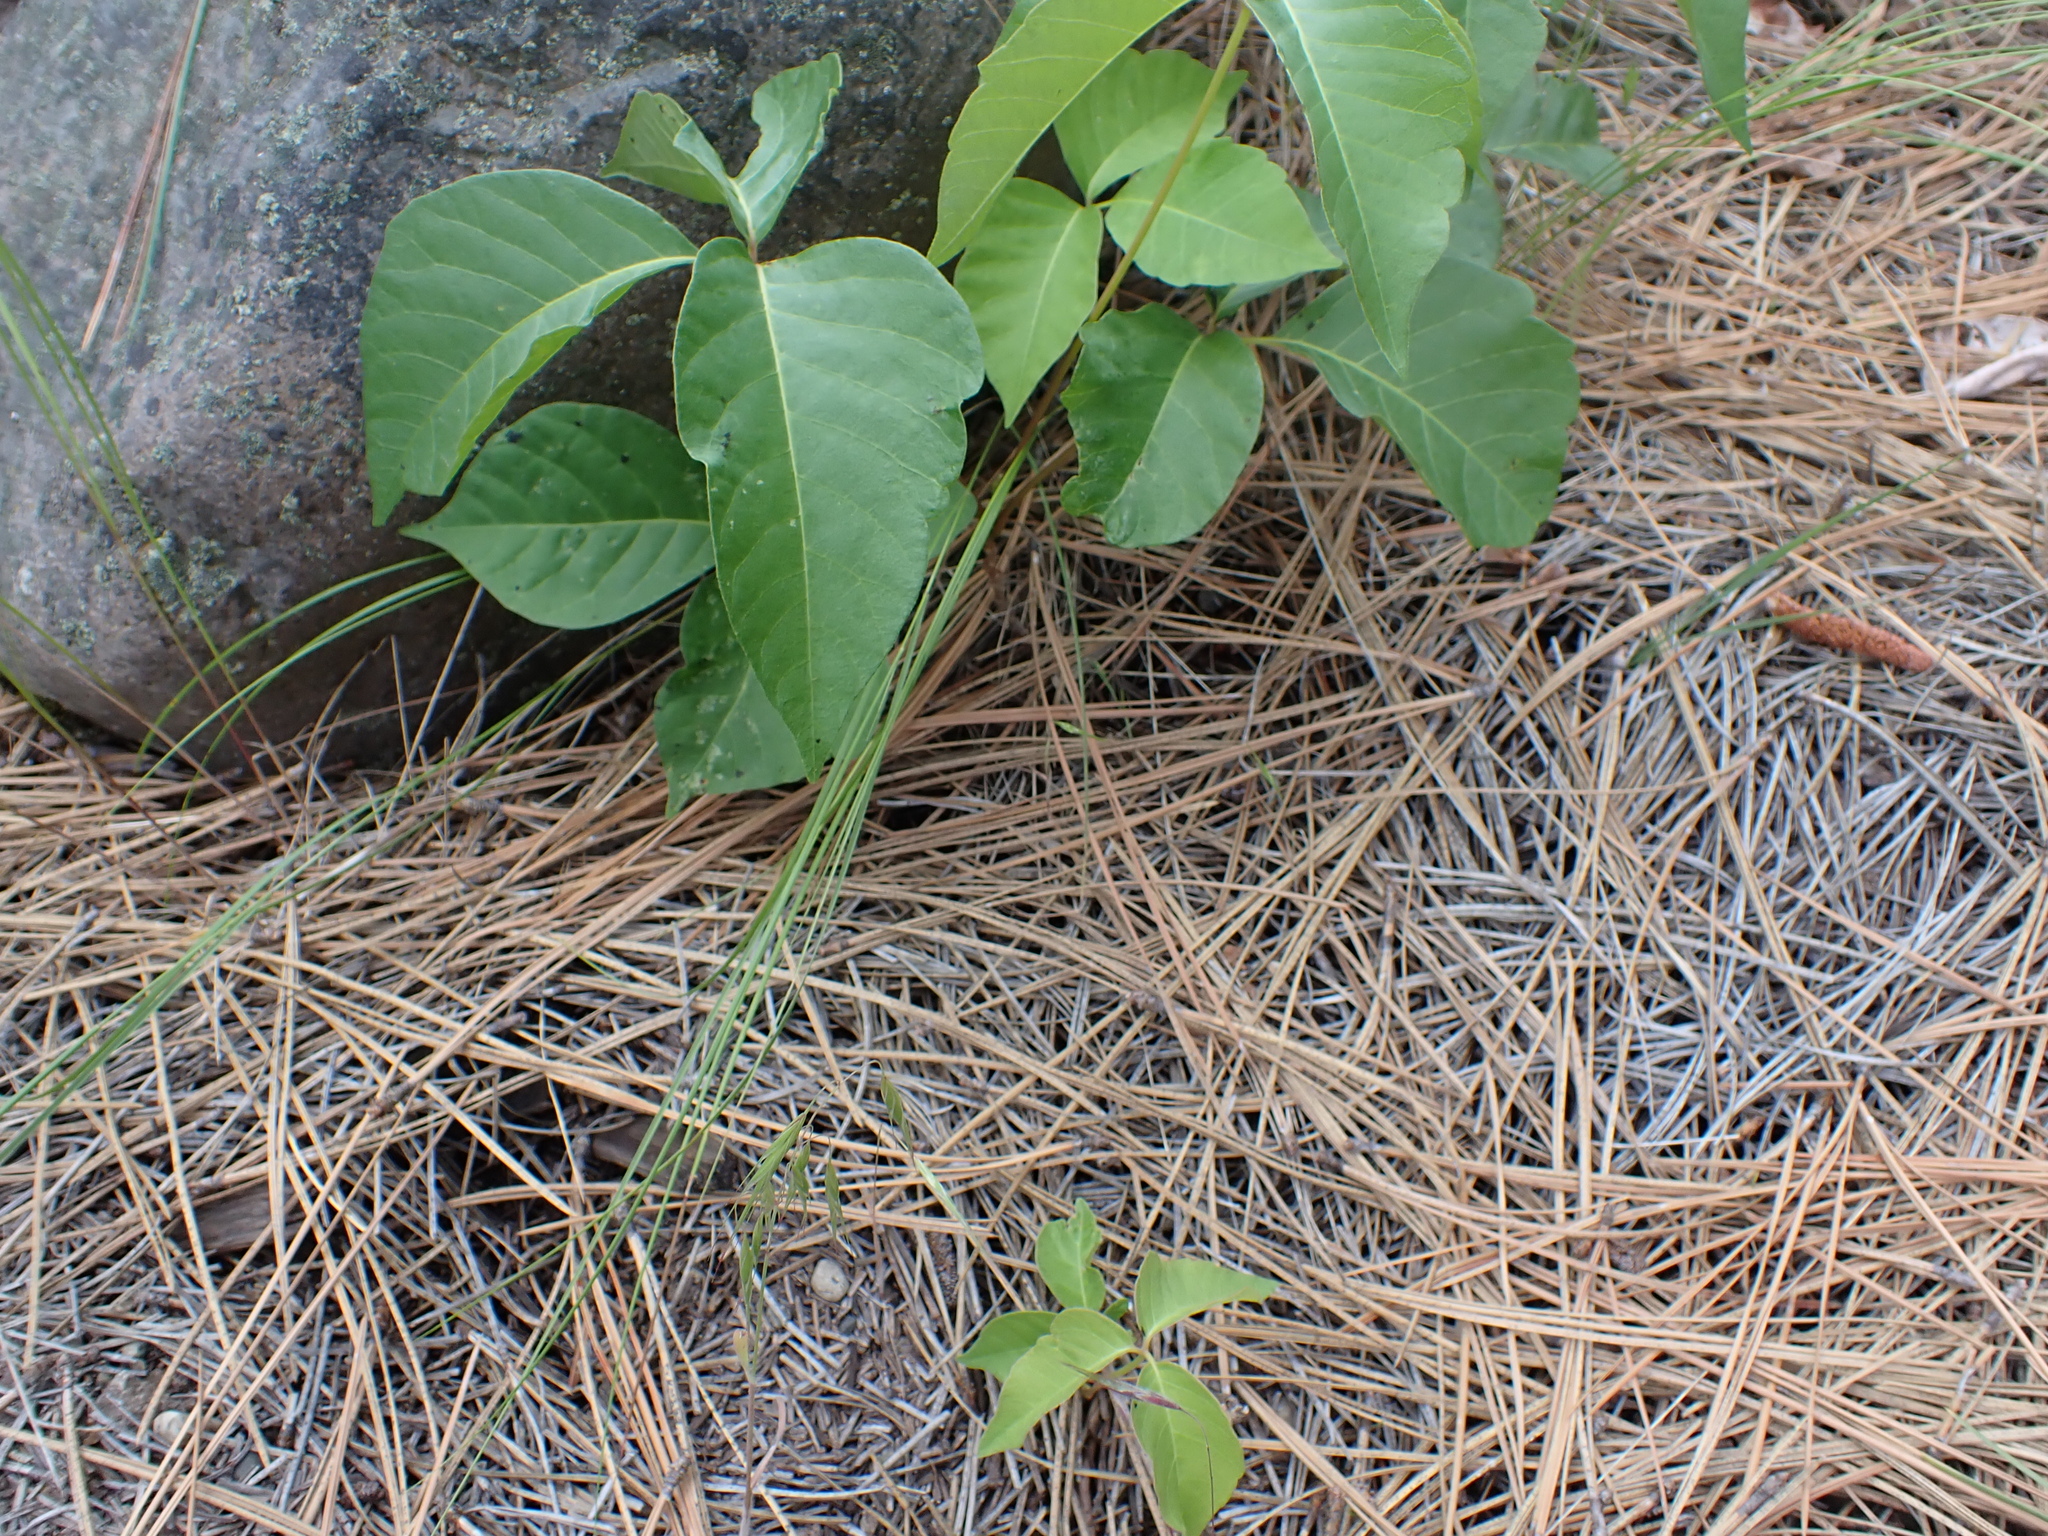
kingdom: Plantae
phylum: Tracheophyta
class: Magnoliopsida
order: Sapindales
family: Anacardiaceae
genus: Toxicodendron
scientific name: Toxicodendron rydbergii
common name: Rydberg's poison-ivy
